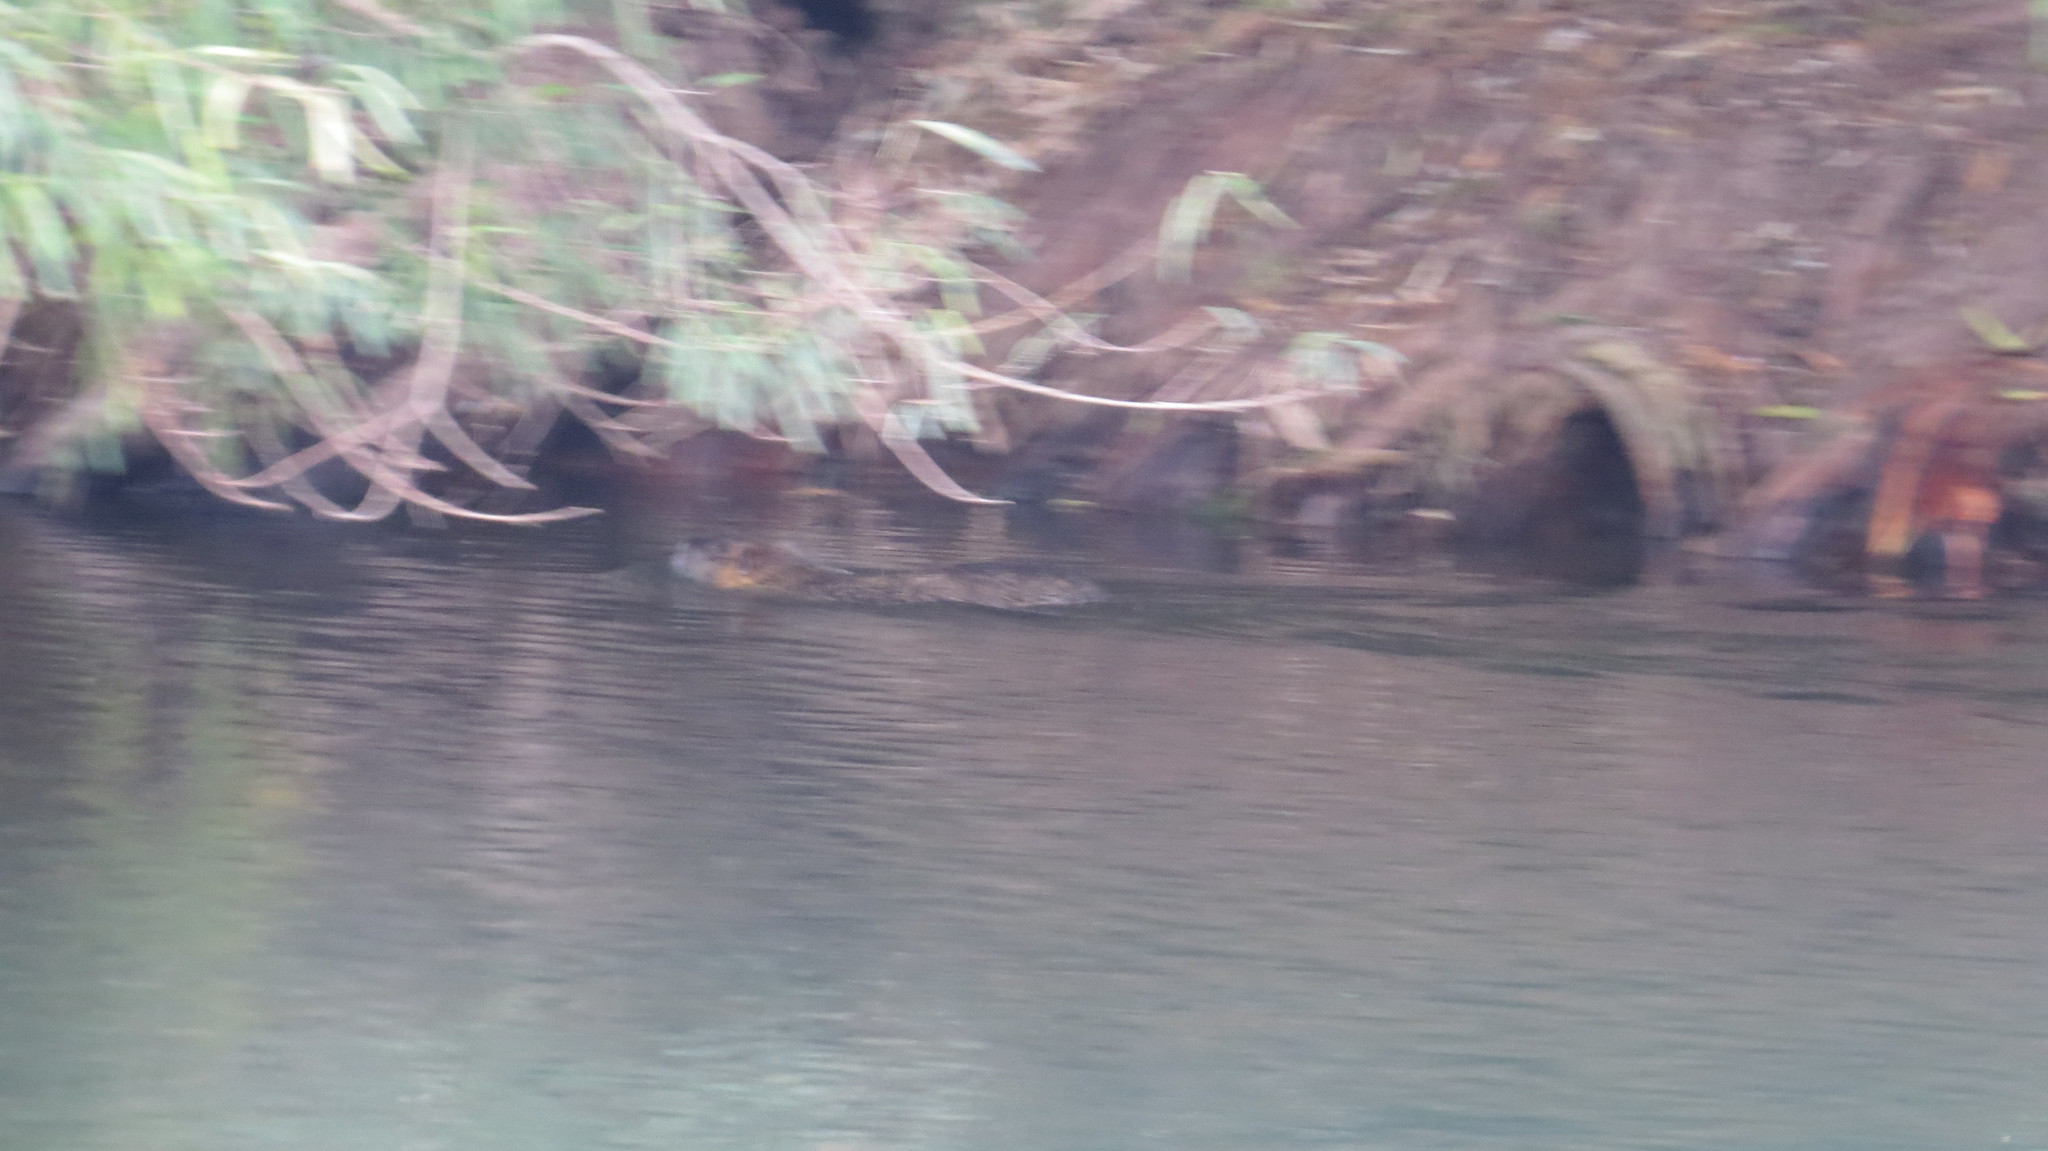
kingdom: Animalia
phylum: Chordata
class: Mammalia
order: Rodentia
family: Myocastoridae
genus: Myocastor
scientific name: Myocastor coypus
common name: Coypu
